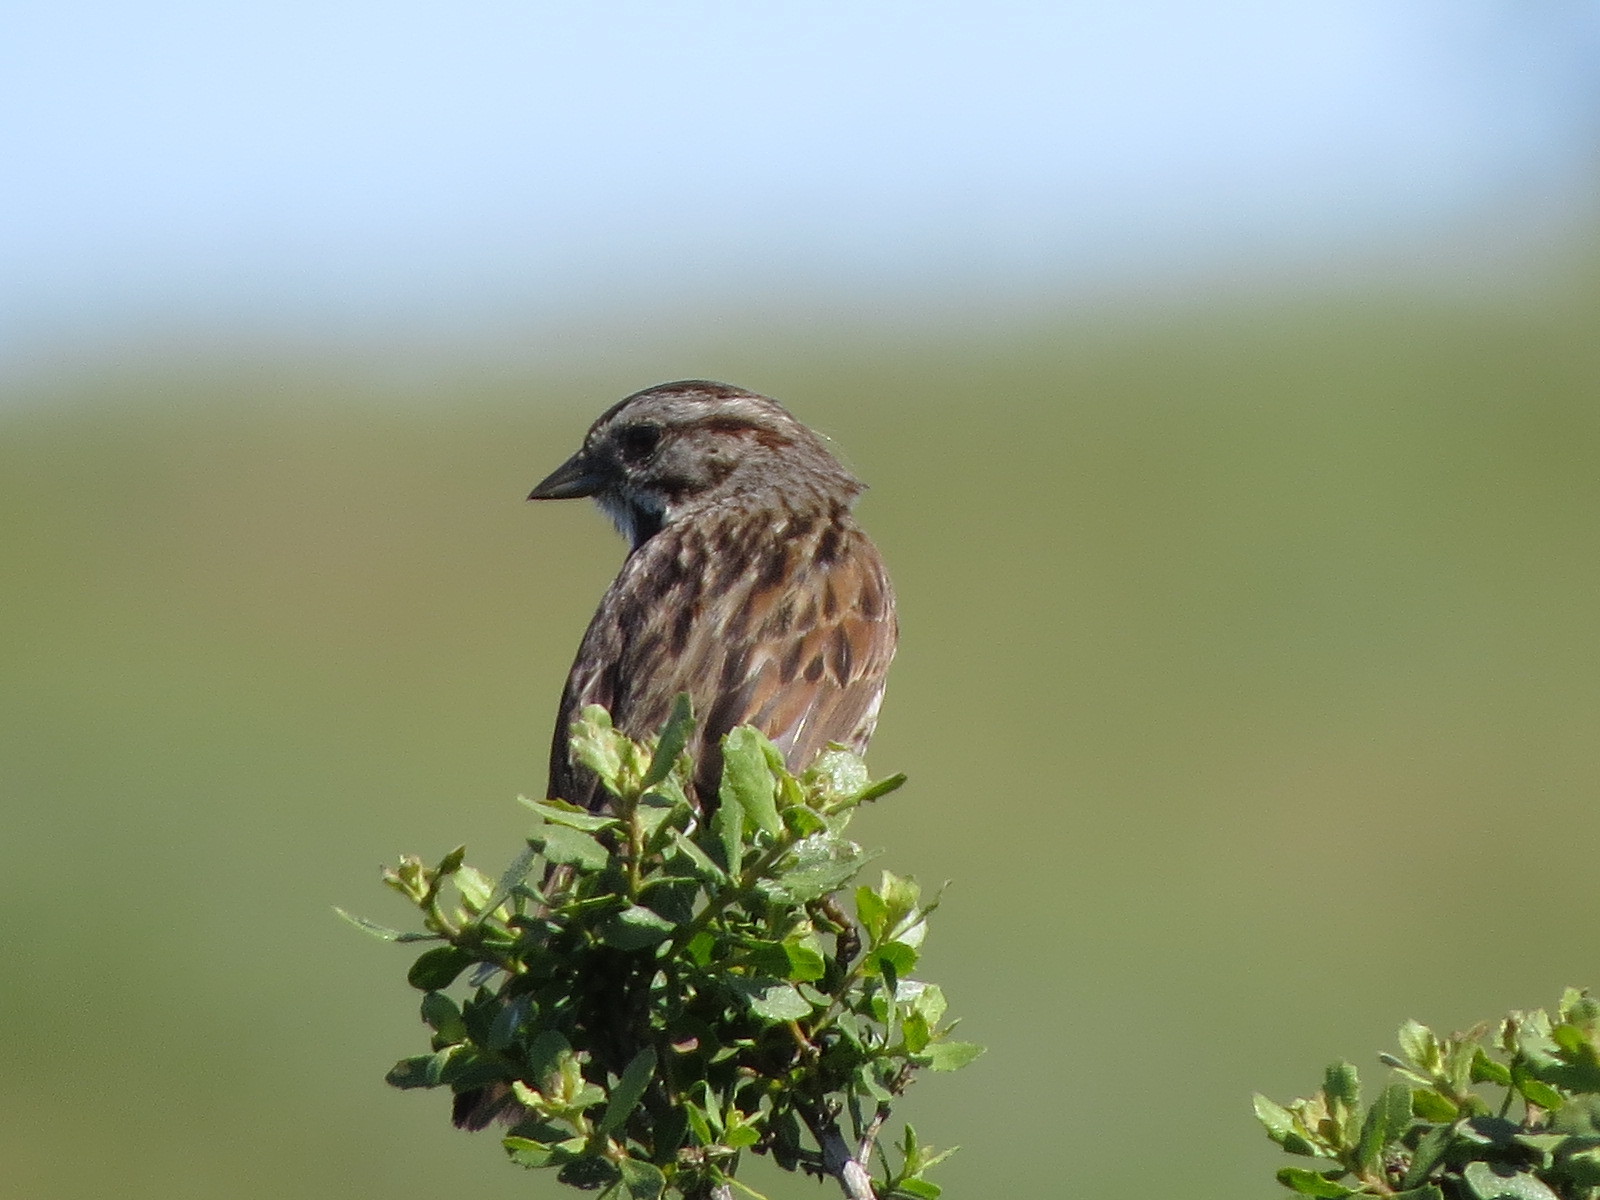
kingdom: Animalia
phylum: Chordata
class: Aves
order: Passeriformes
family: Passerellidae
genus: Melospiza
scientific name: Melospiza melodia
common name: Song sparrow
